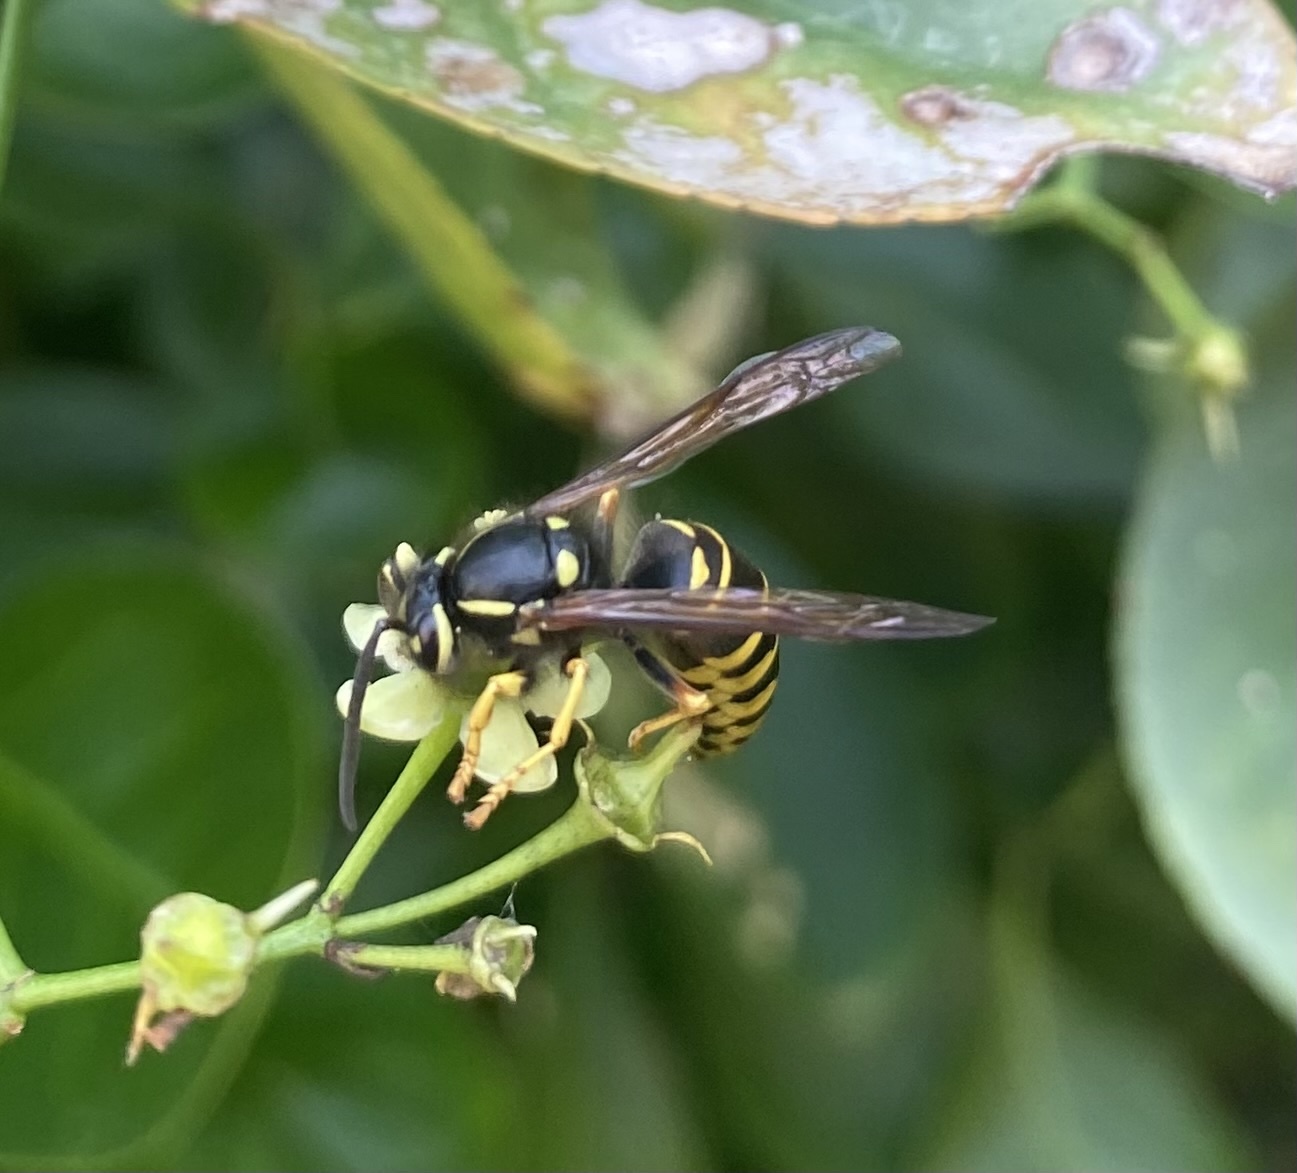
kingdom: Animalia
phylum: Arthropoda
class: Insecta
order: Hymenoptera
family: Vespidae
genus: Vespula
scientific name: Vespula vidua
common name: Widow yellowjacket
